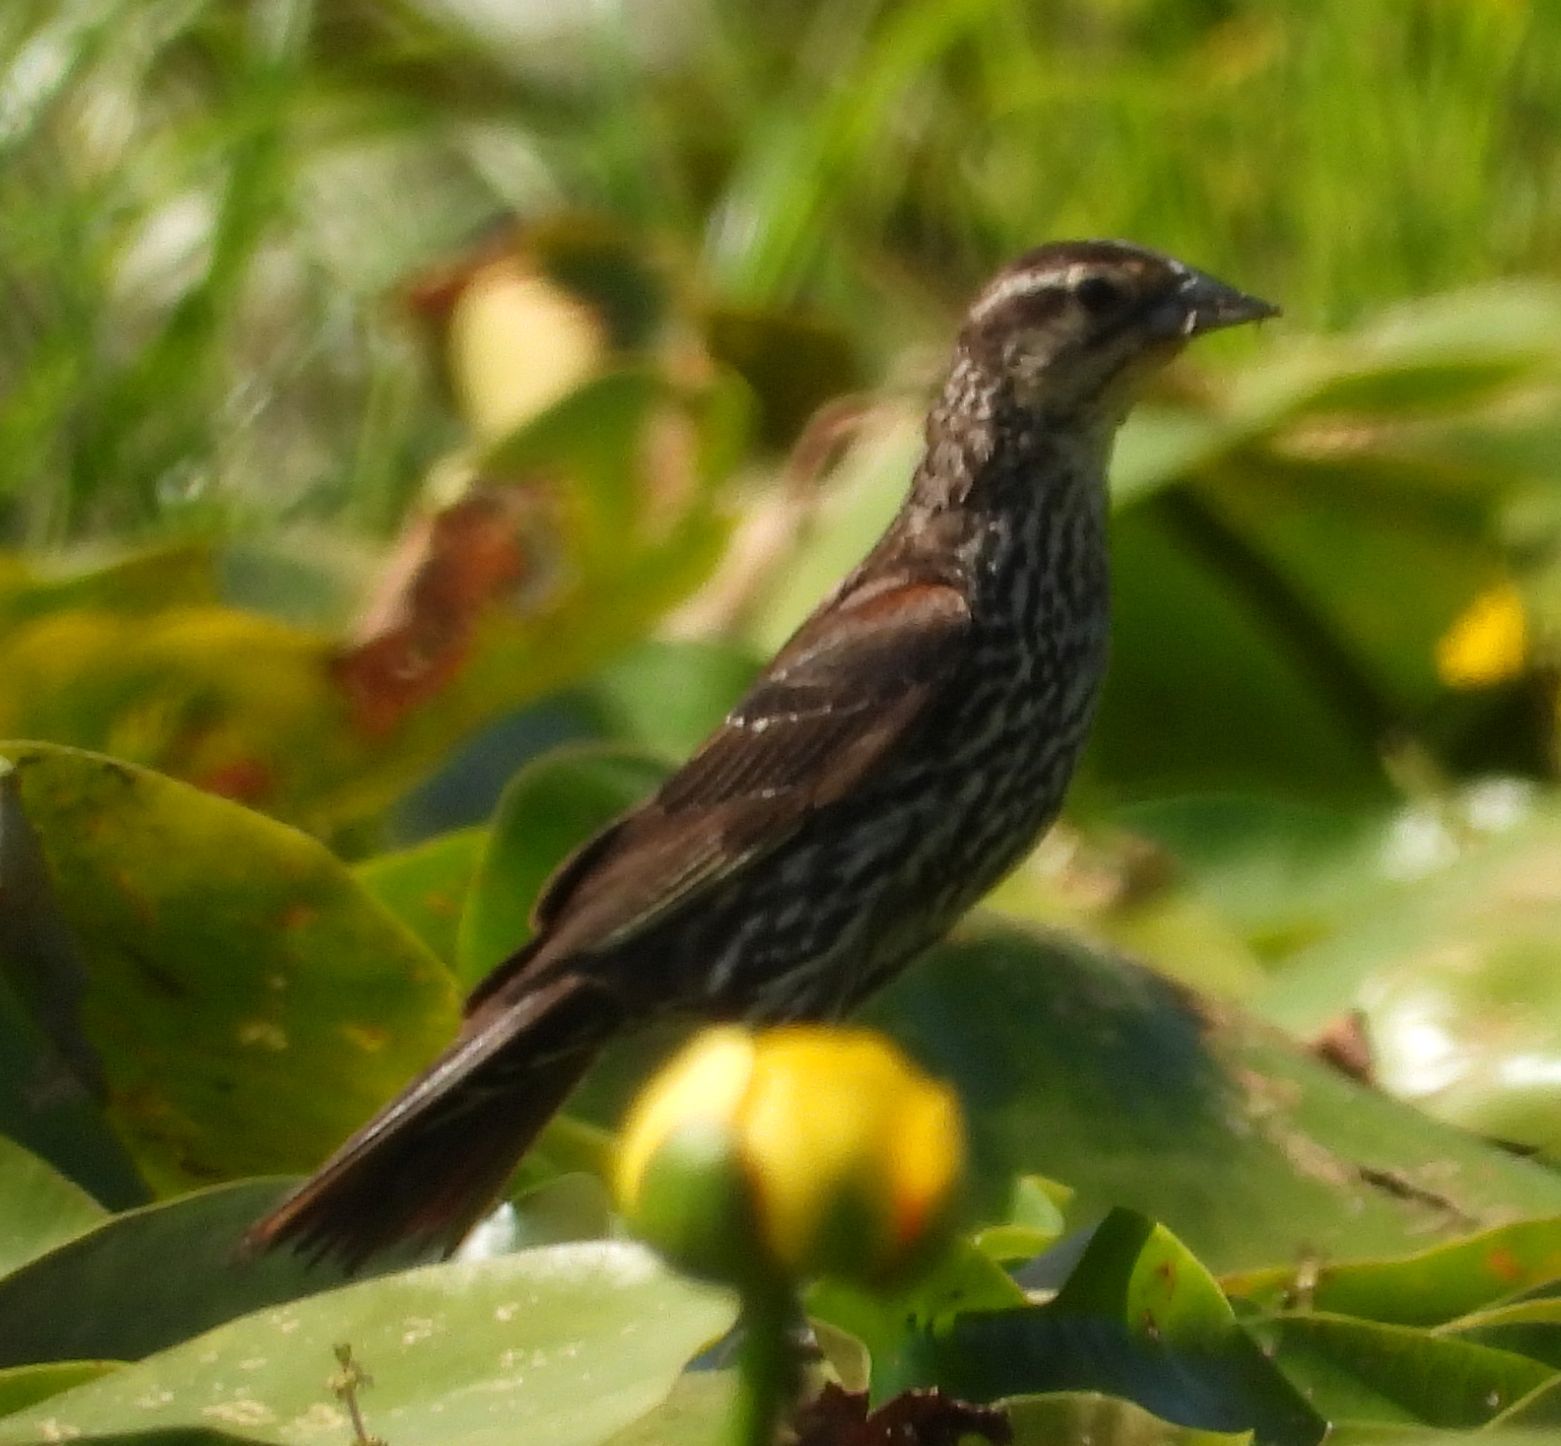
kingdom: Animalia
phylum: Chordata
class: Aves
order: Passeriformes
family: Icteridae
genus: Agelaius
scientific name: Agelaius phoeniceus
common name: Red-winged blackbird
